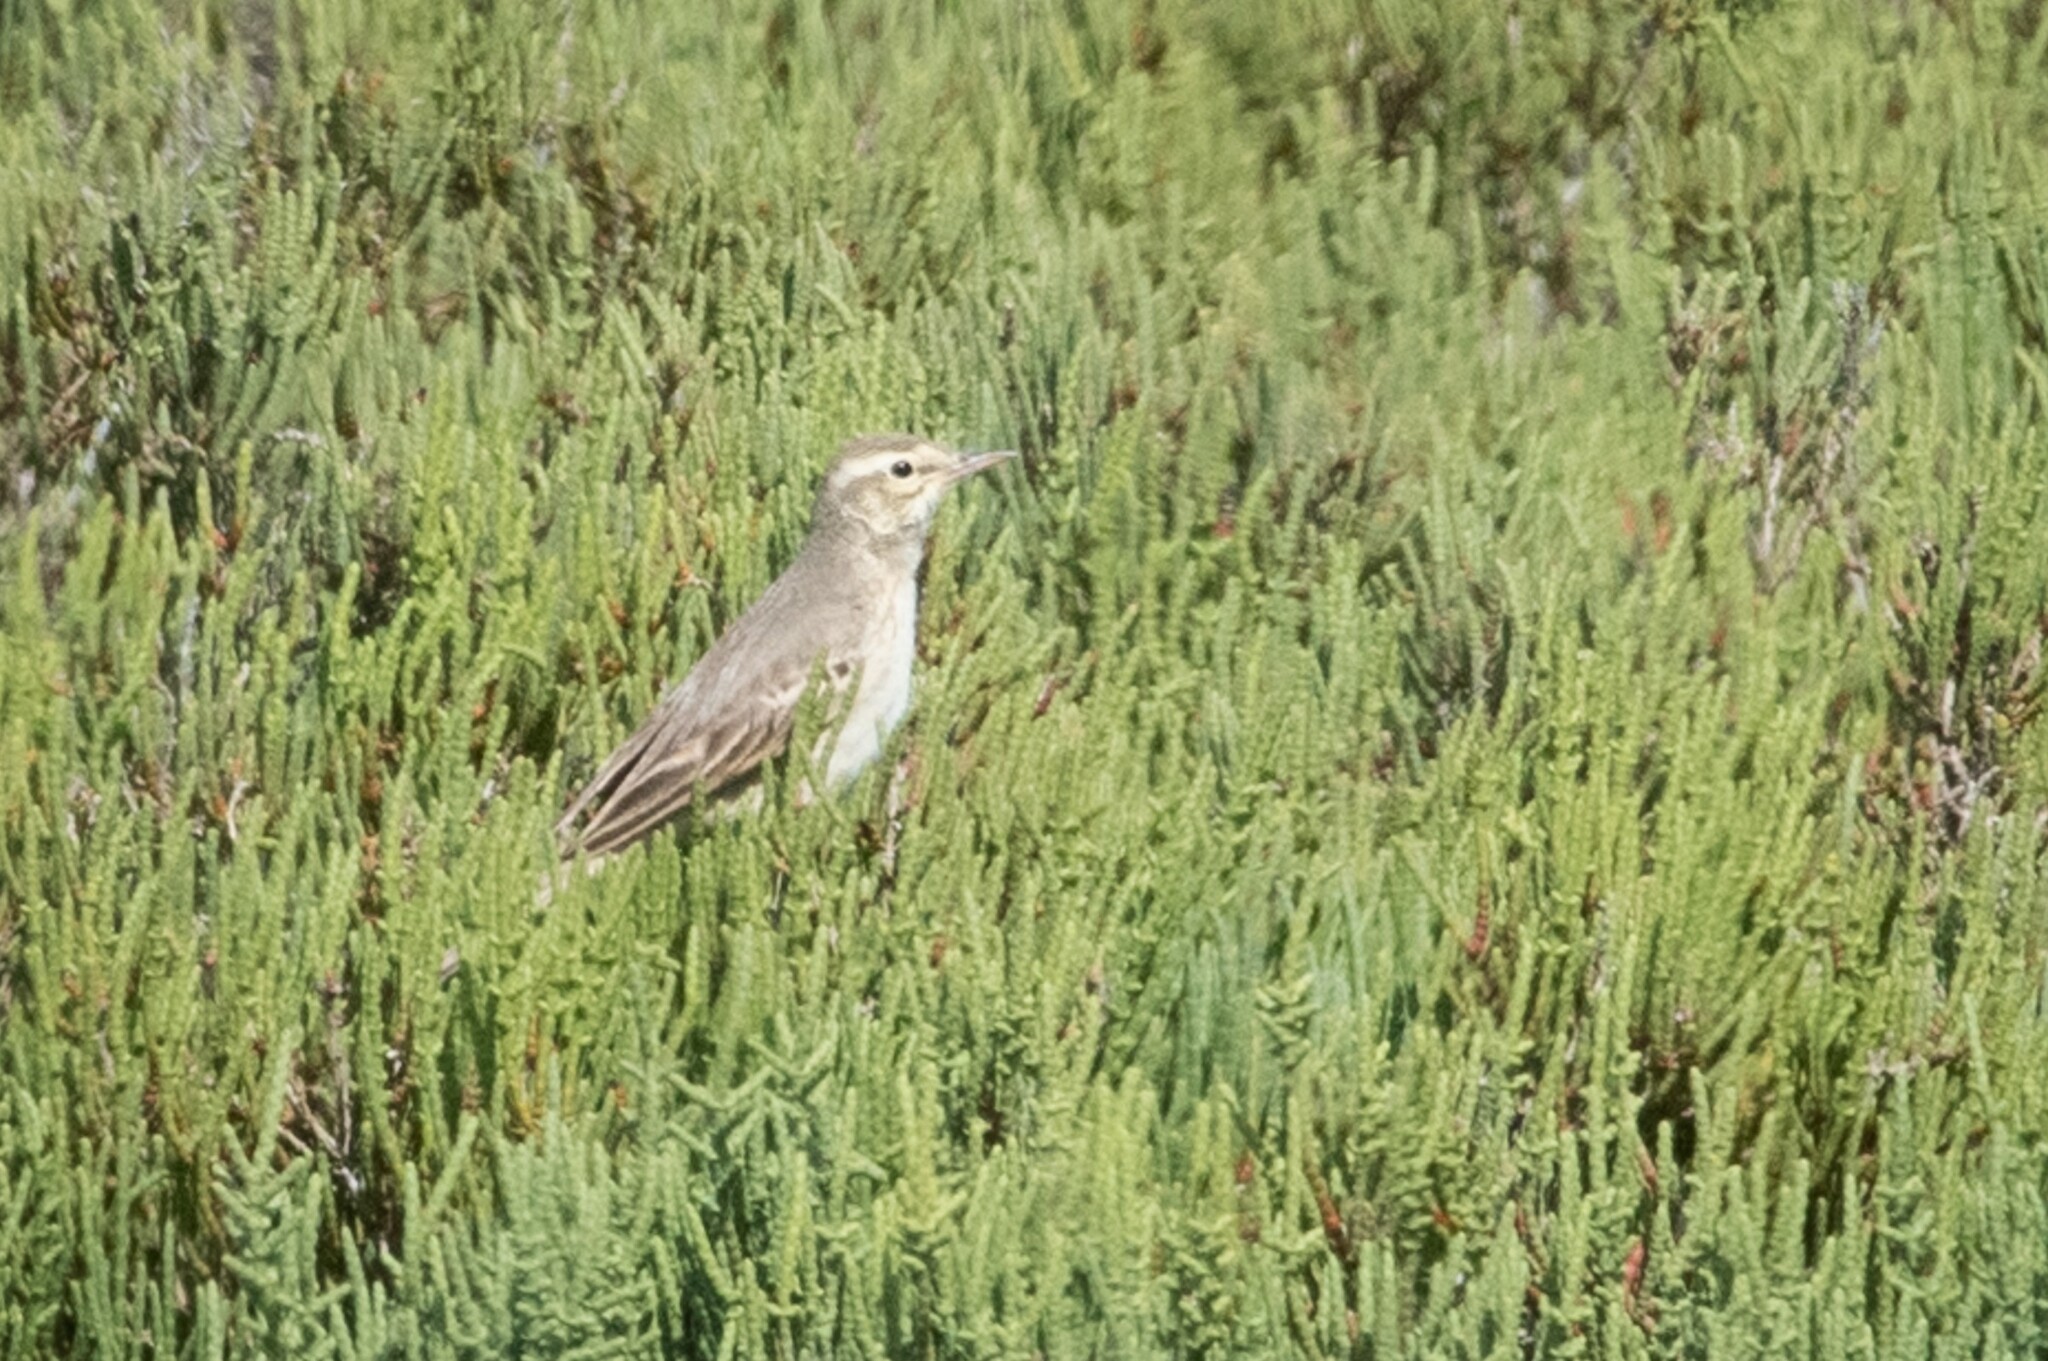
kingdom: Animalia
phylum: Chordata
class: Aves
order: Passeriformes
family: Motacillidae
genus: Anthus
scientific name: Anthus campestris
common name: Tawny pipit
